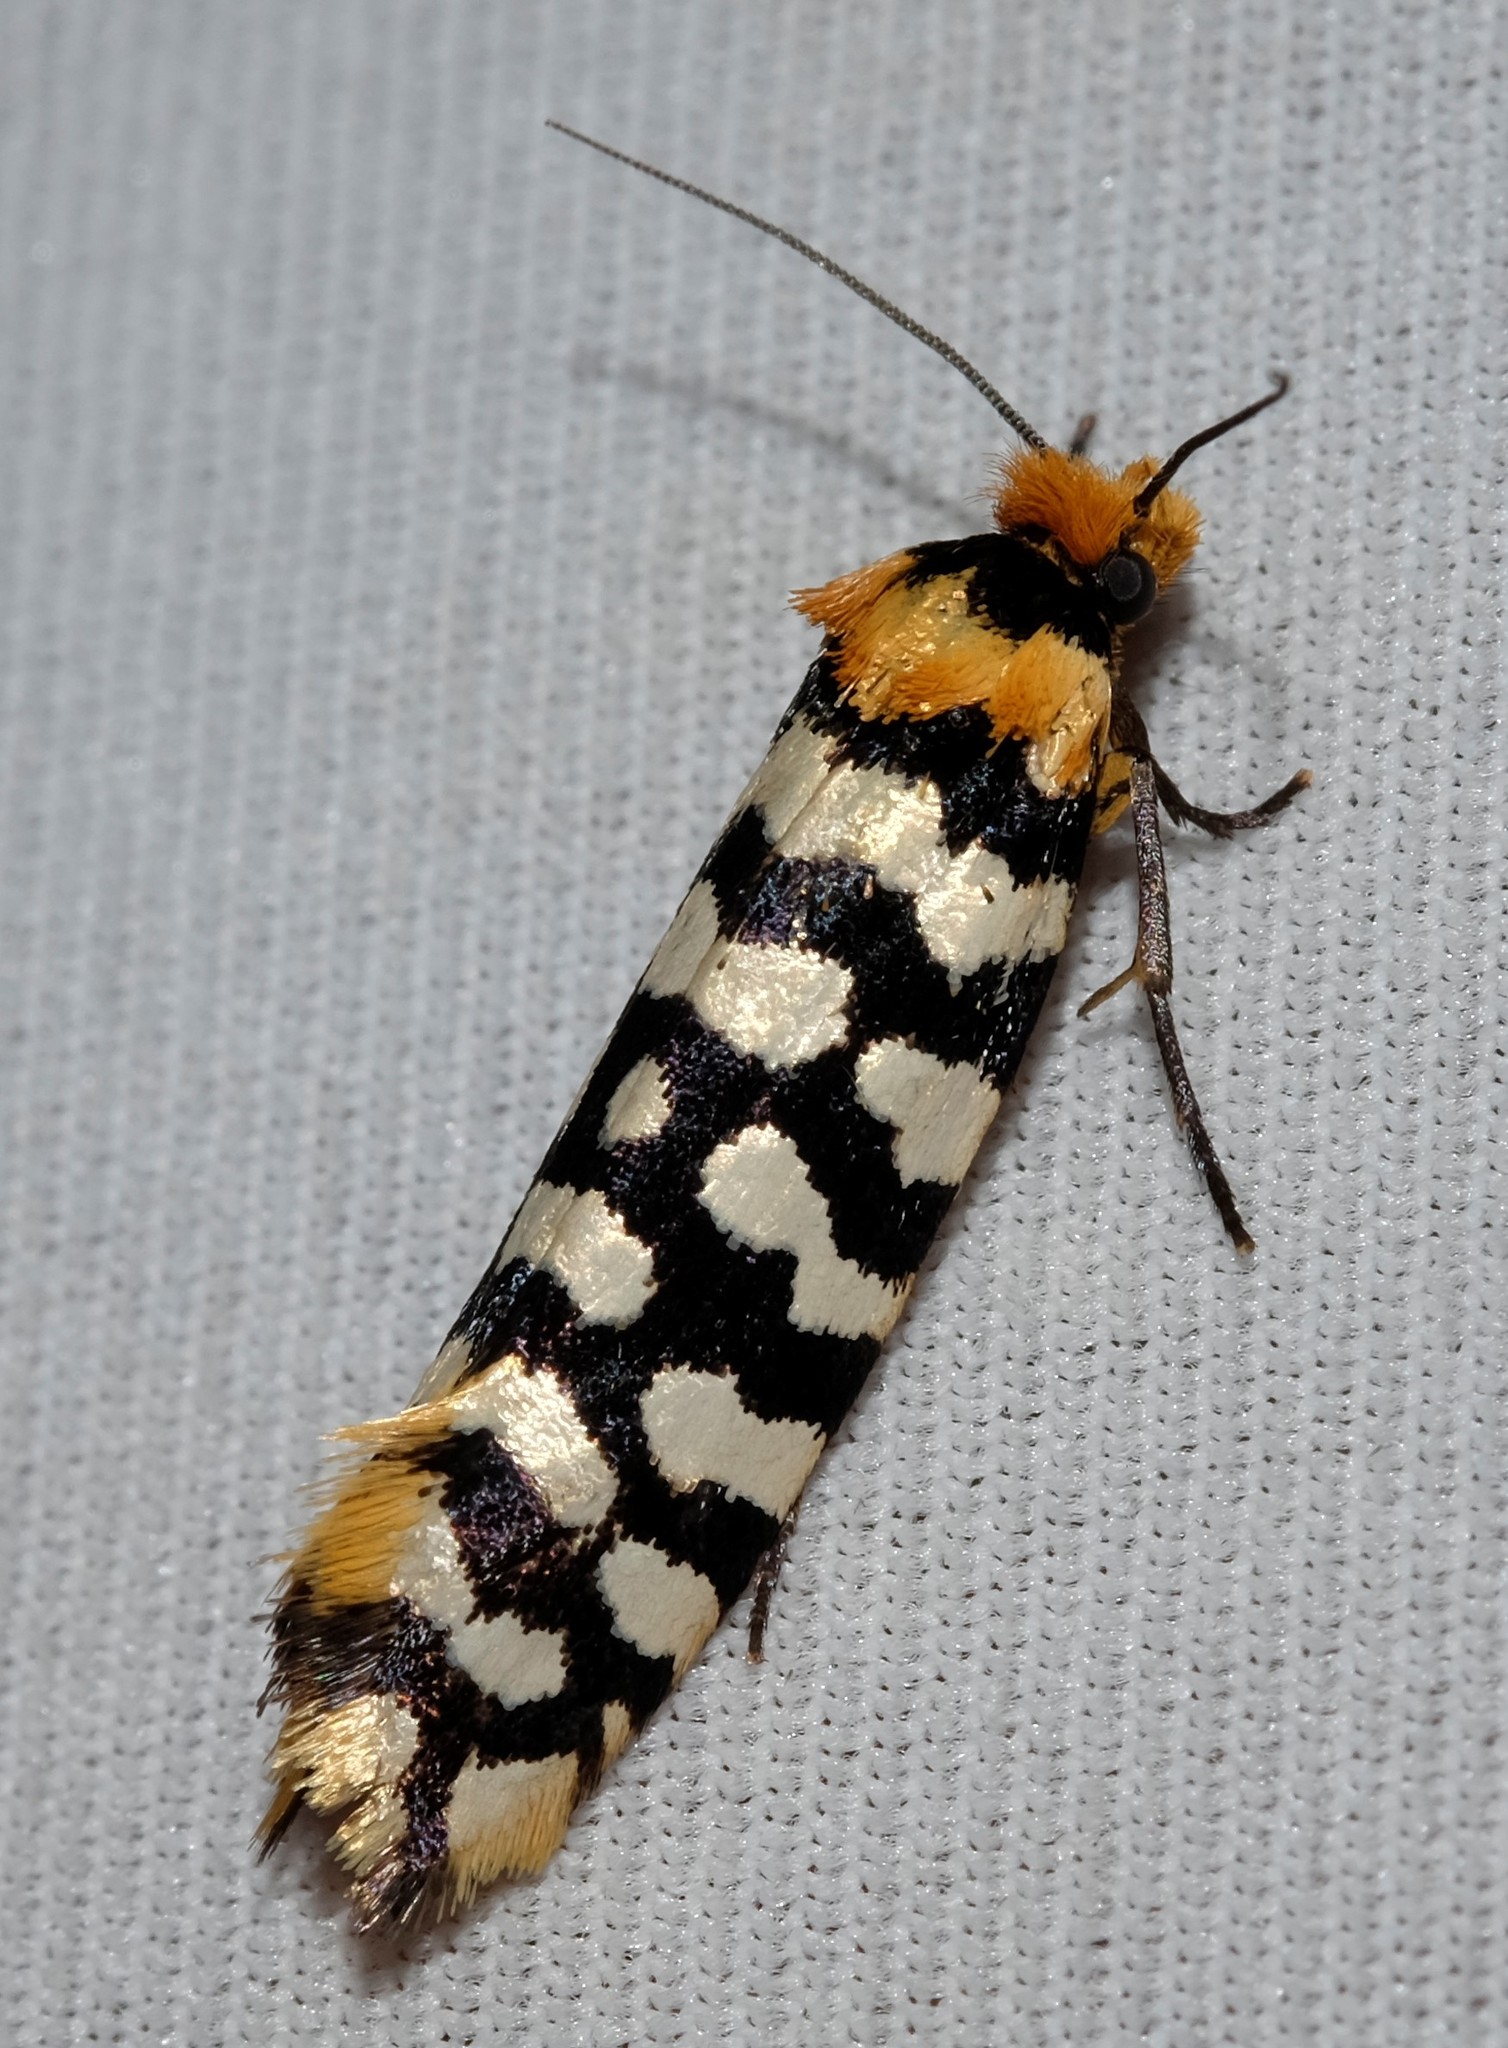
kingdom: Animalia
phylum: Arthropoda
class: Insecta
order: Lepidoptera
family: Tineidae
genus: Moerarchis
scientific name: Moerarchis australasiella
